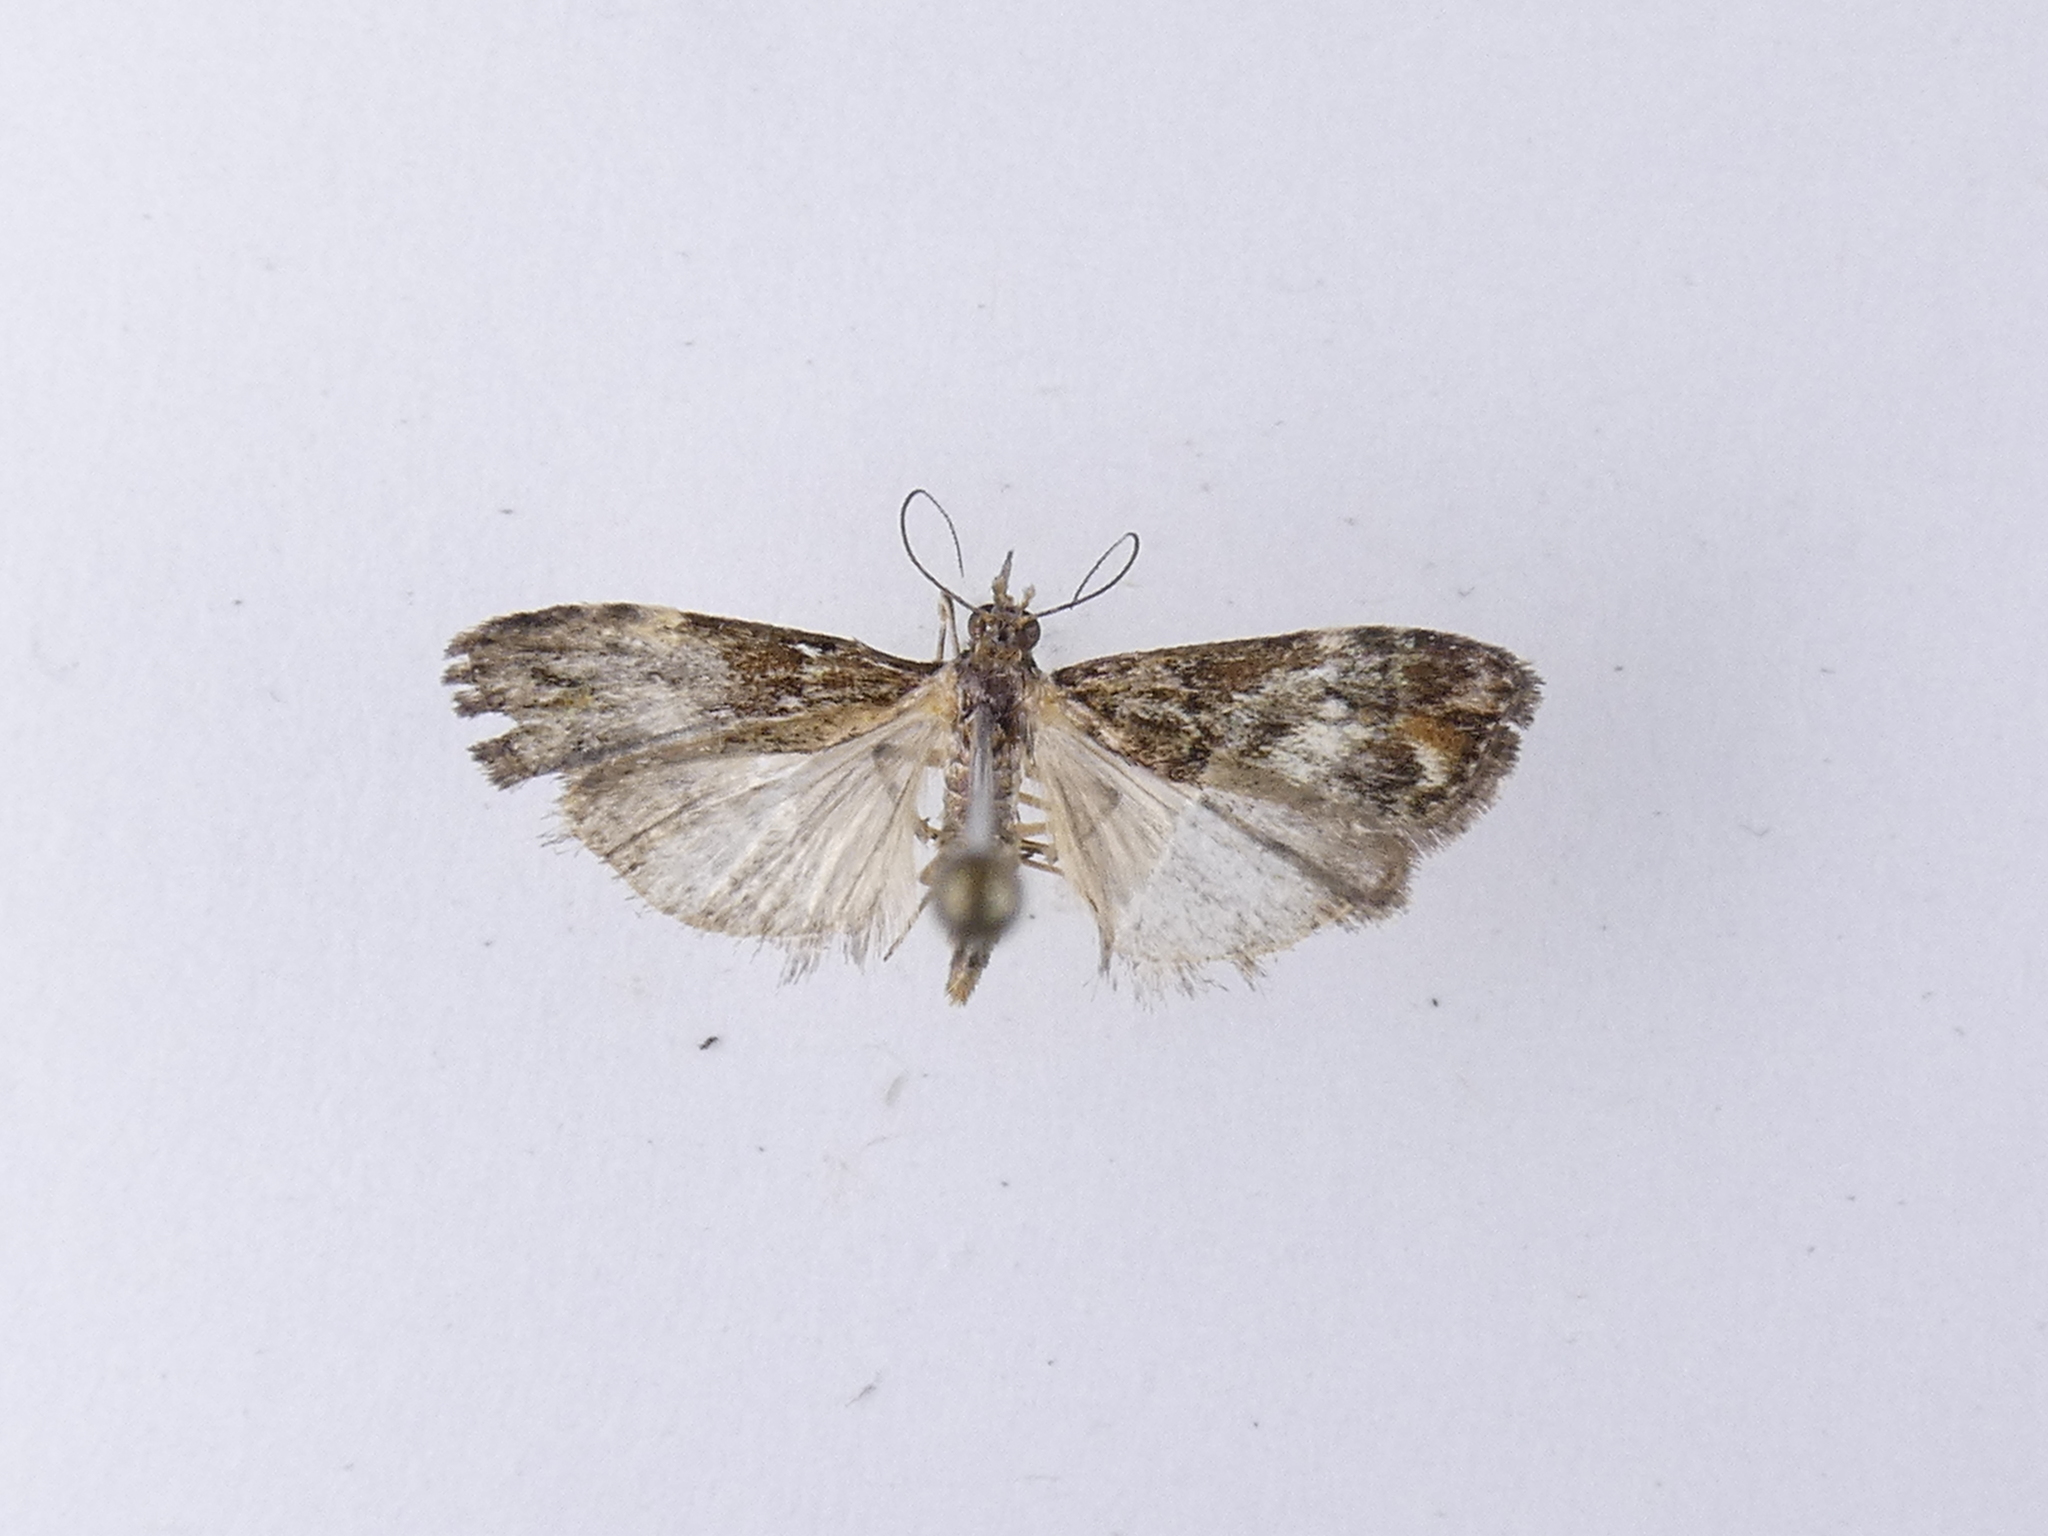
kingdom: Animalia
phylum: Arthropoda
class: Insecta
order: Lepidoptera
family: Crambidae
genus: Eudonia
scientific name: Eudonia minualis
